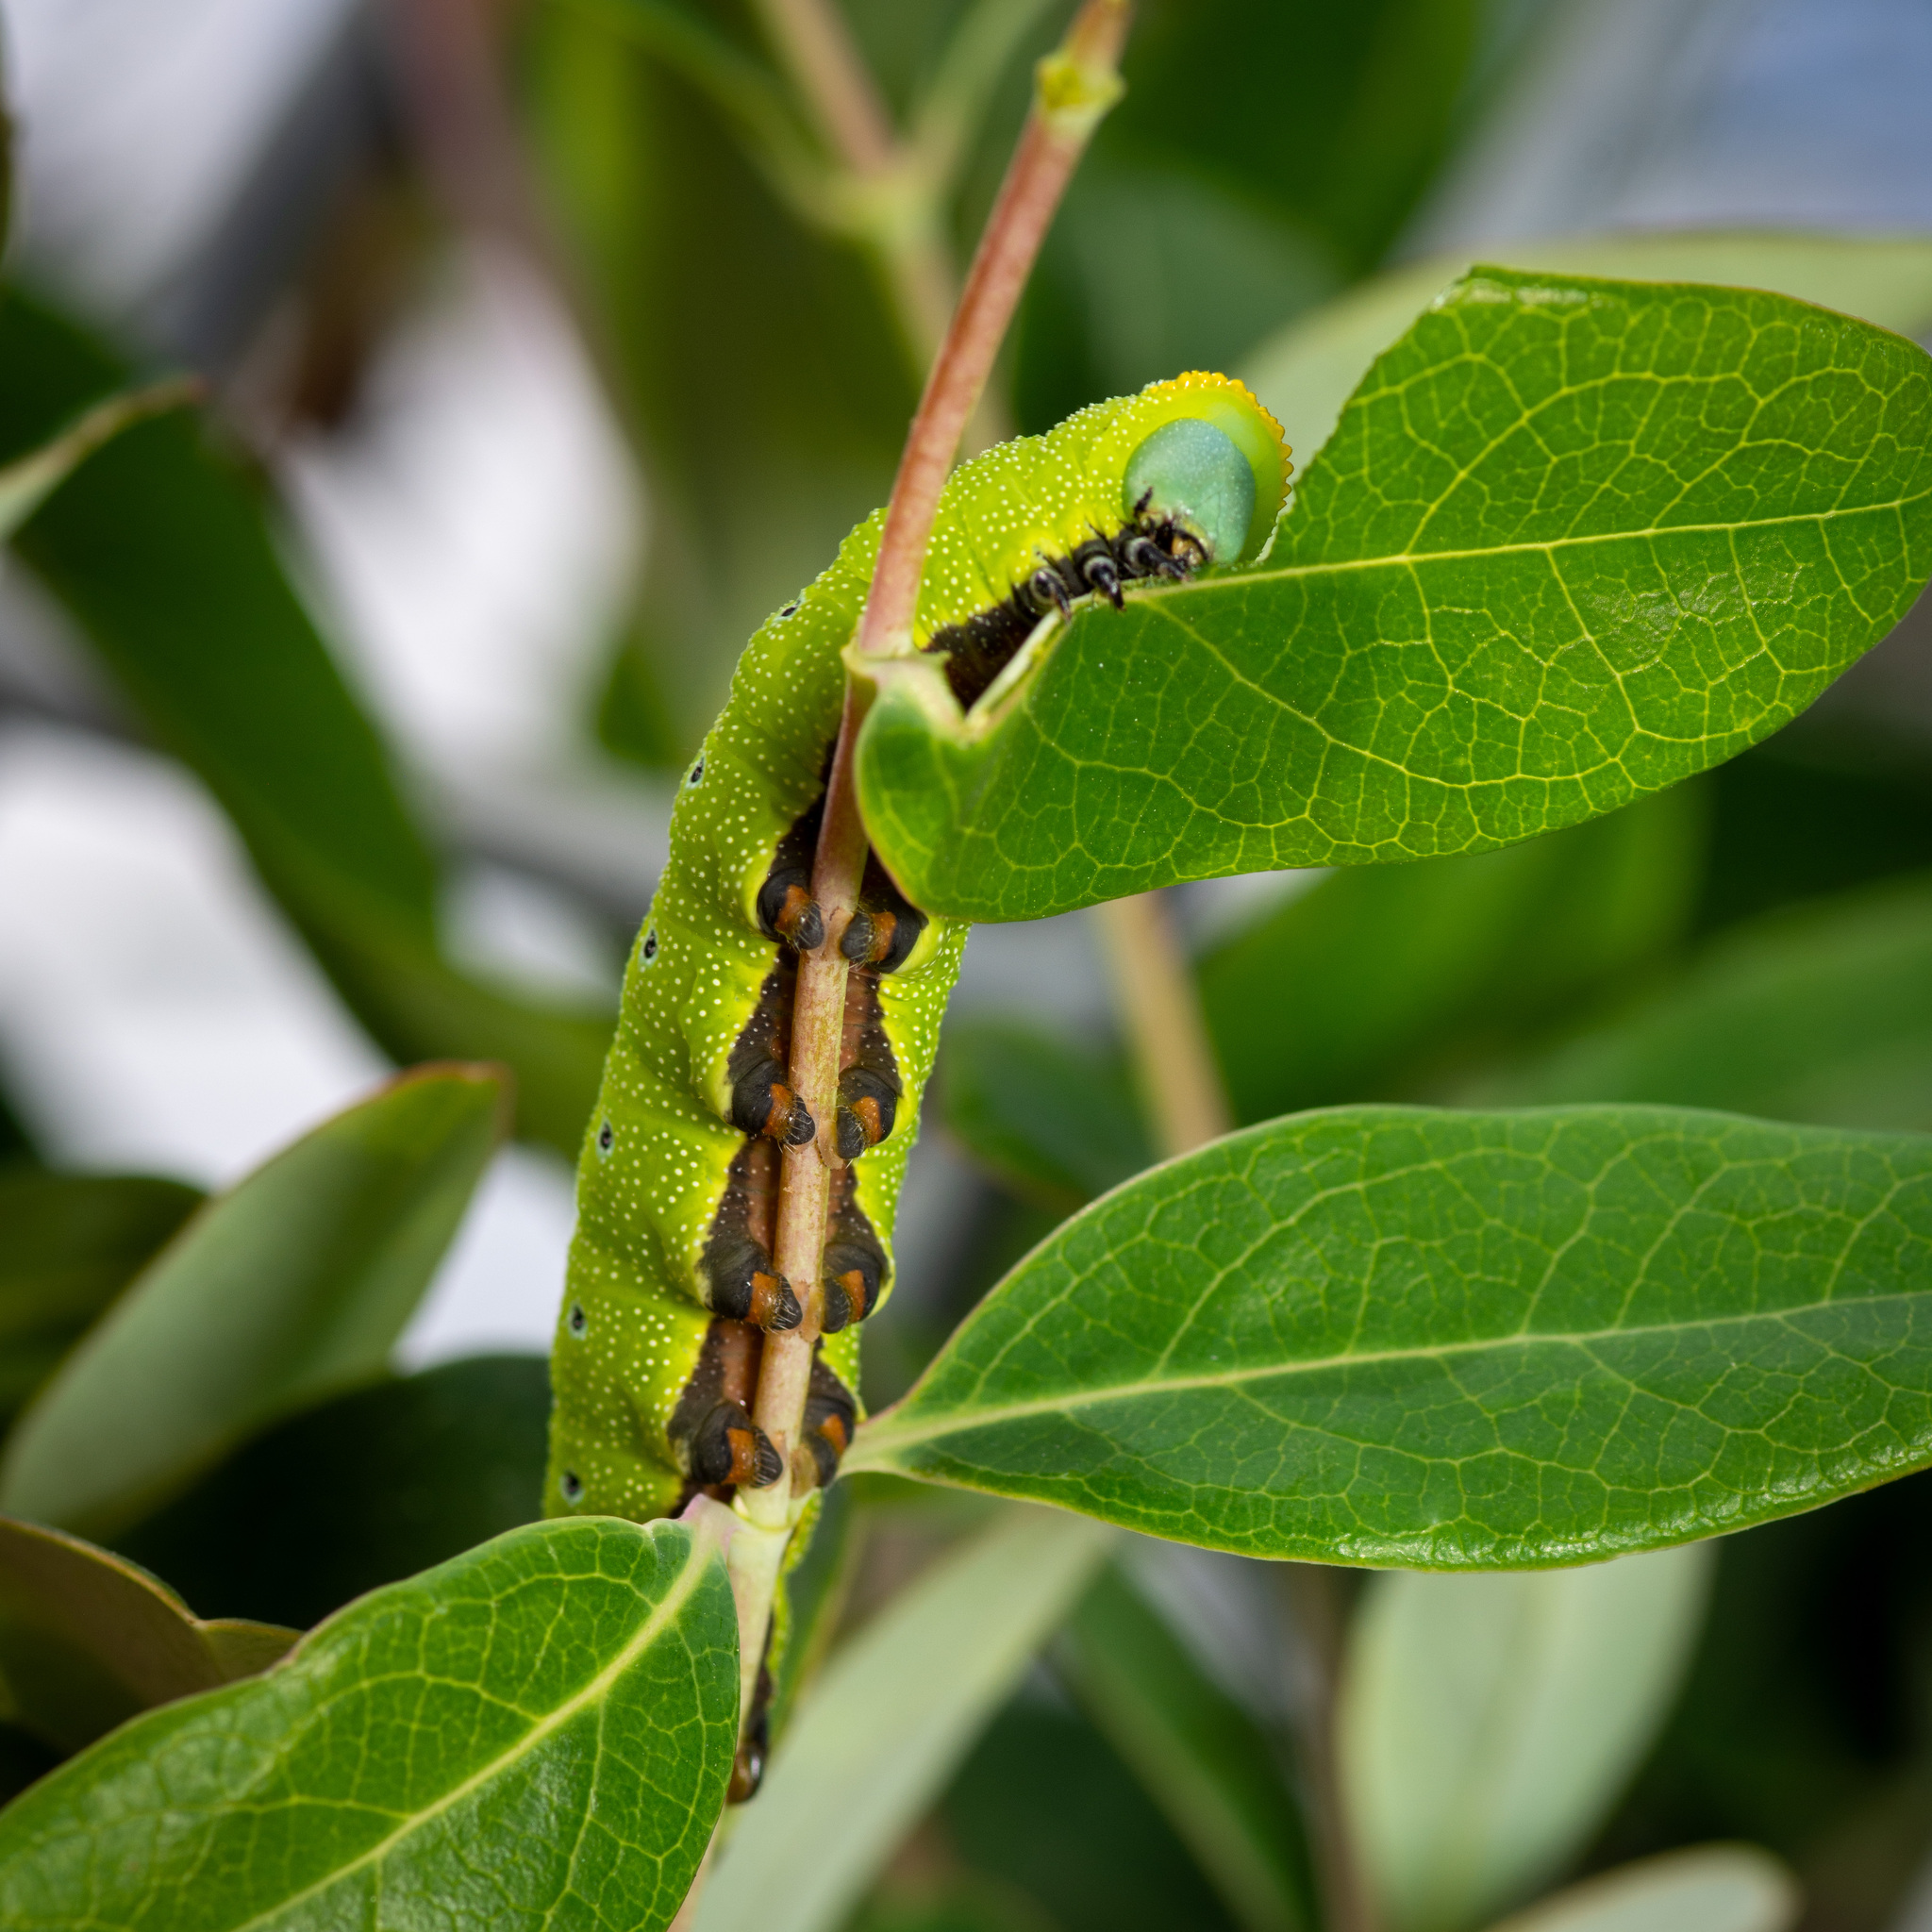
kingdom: Animalia
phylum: Arthropoda
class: Insecta
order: Lepidoptera
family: Sphingidae
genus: Hemaris
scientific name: Hemaris diffinis
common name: Bumblebee moth
